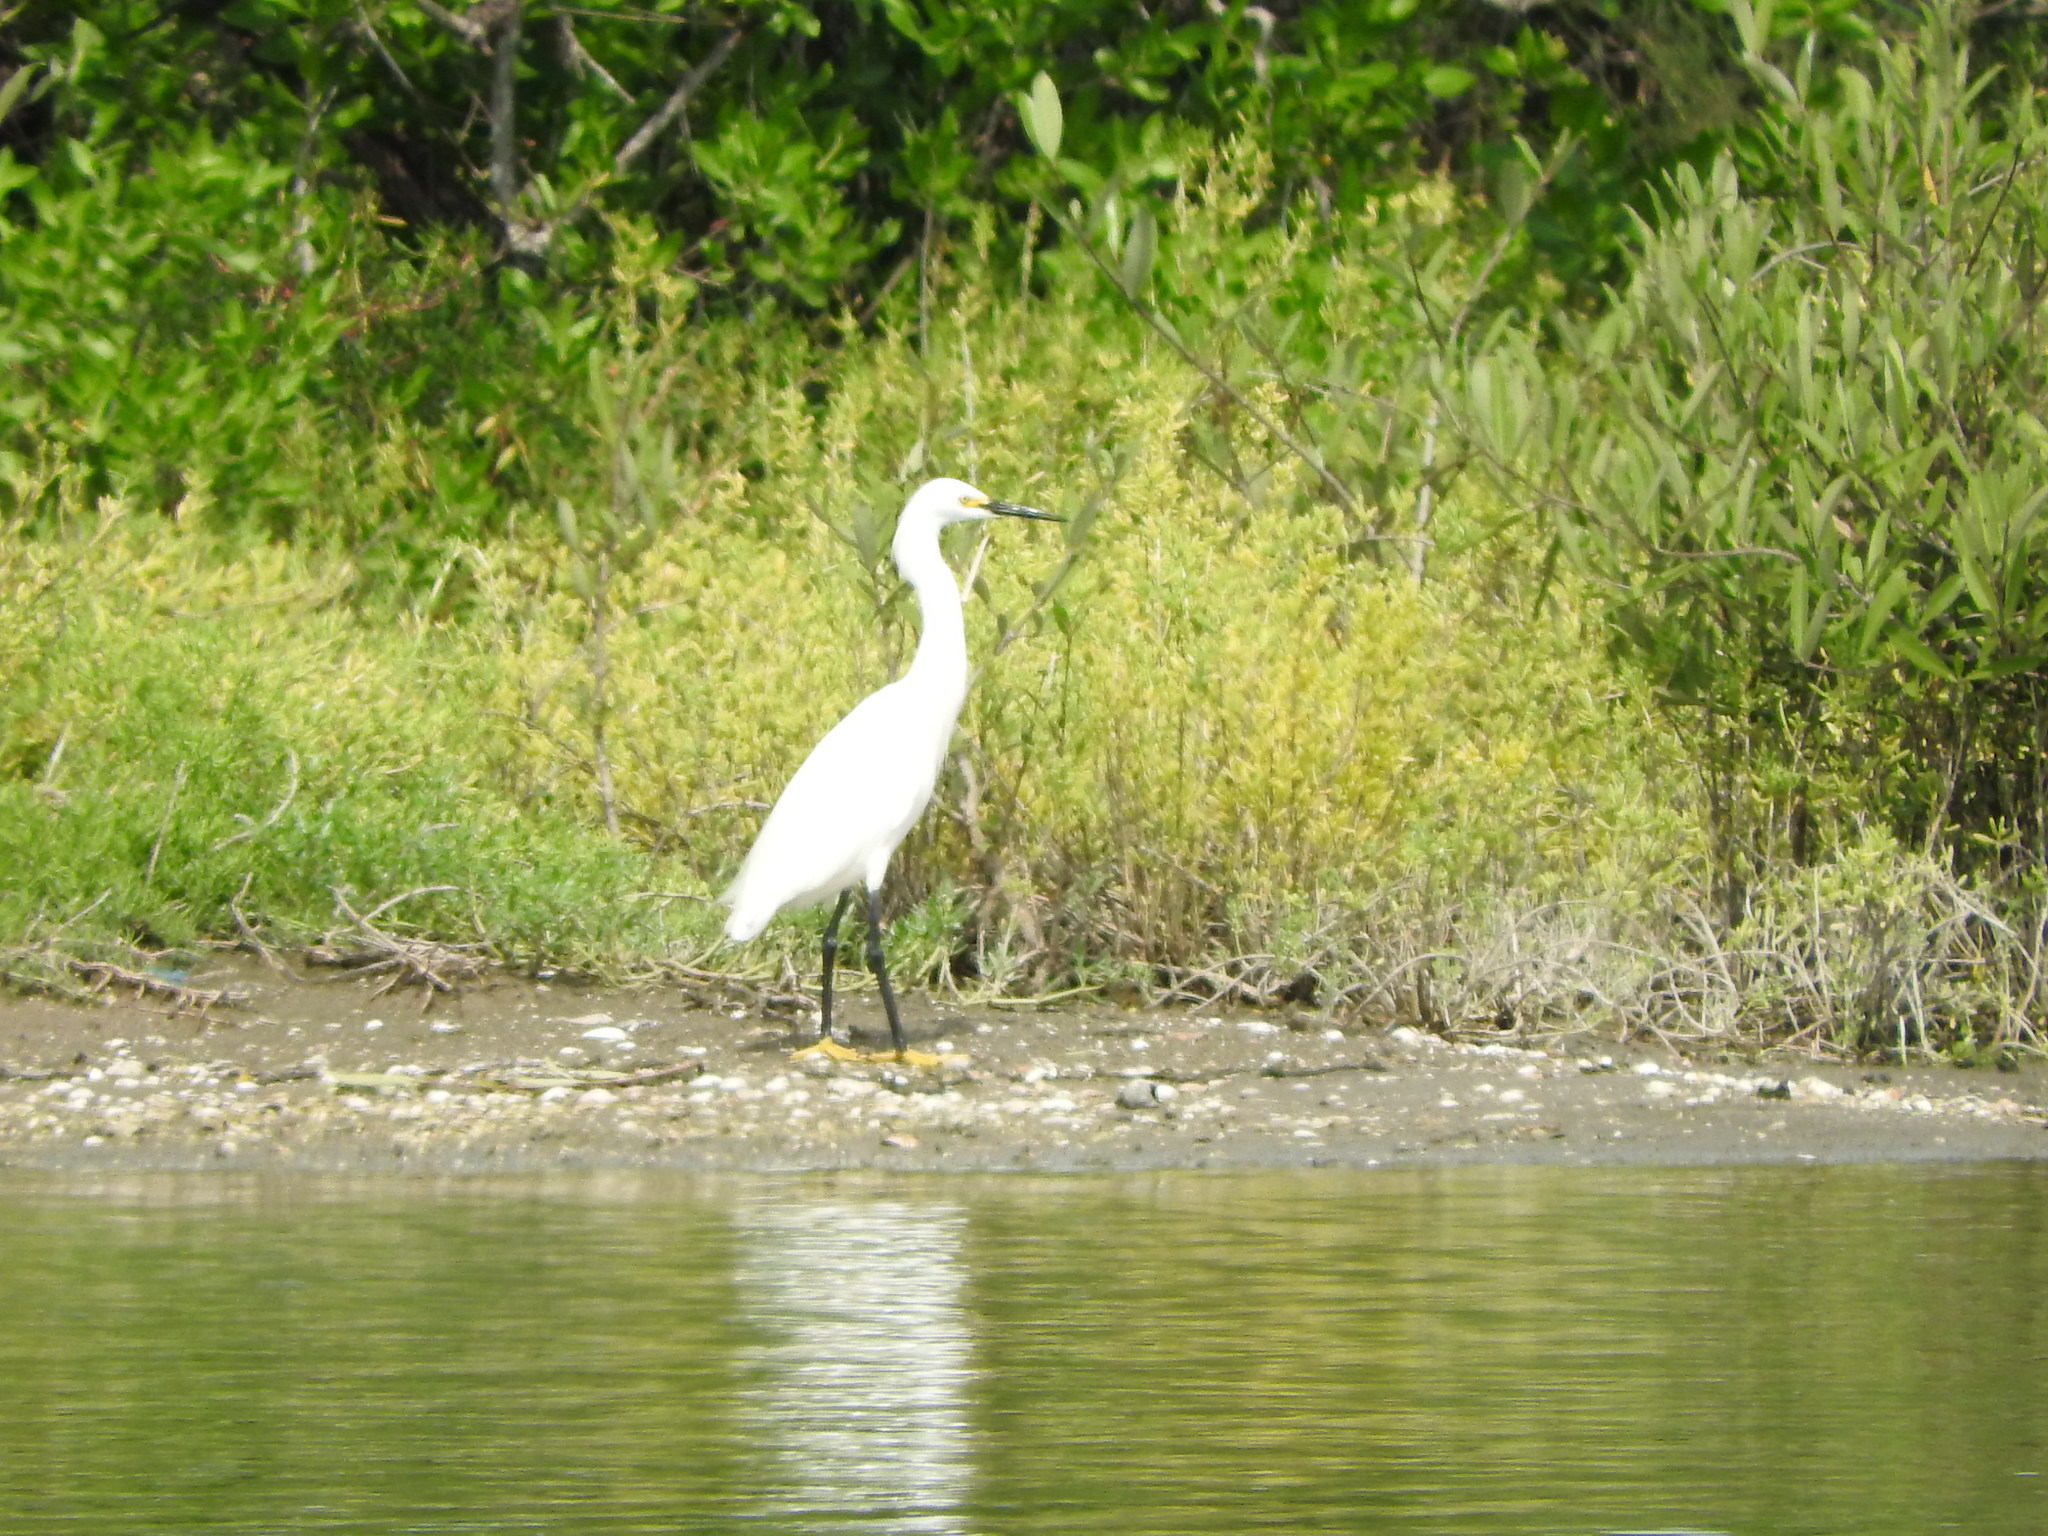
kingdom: Animalia
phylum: Chordata
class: Aves
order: Pelecaniformes
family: Ardeidae
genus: Egretta
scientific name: Egretta thula
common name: Snowy egret
